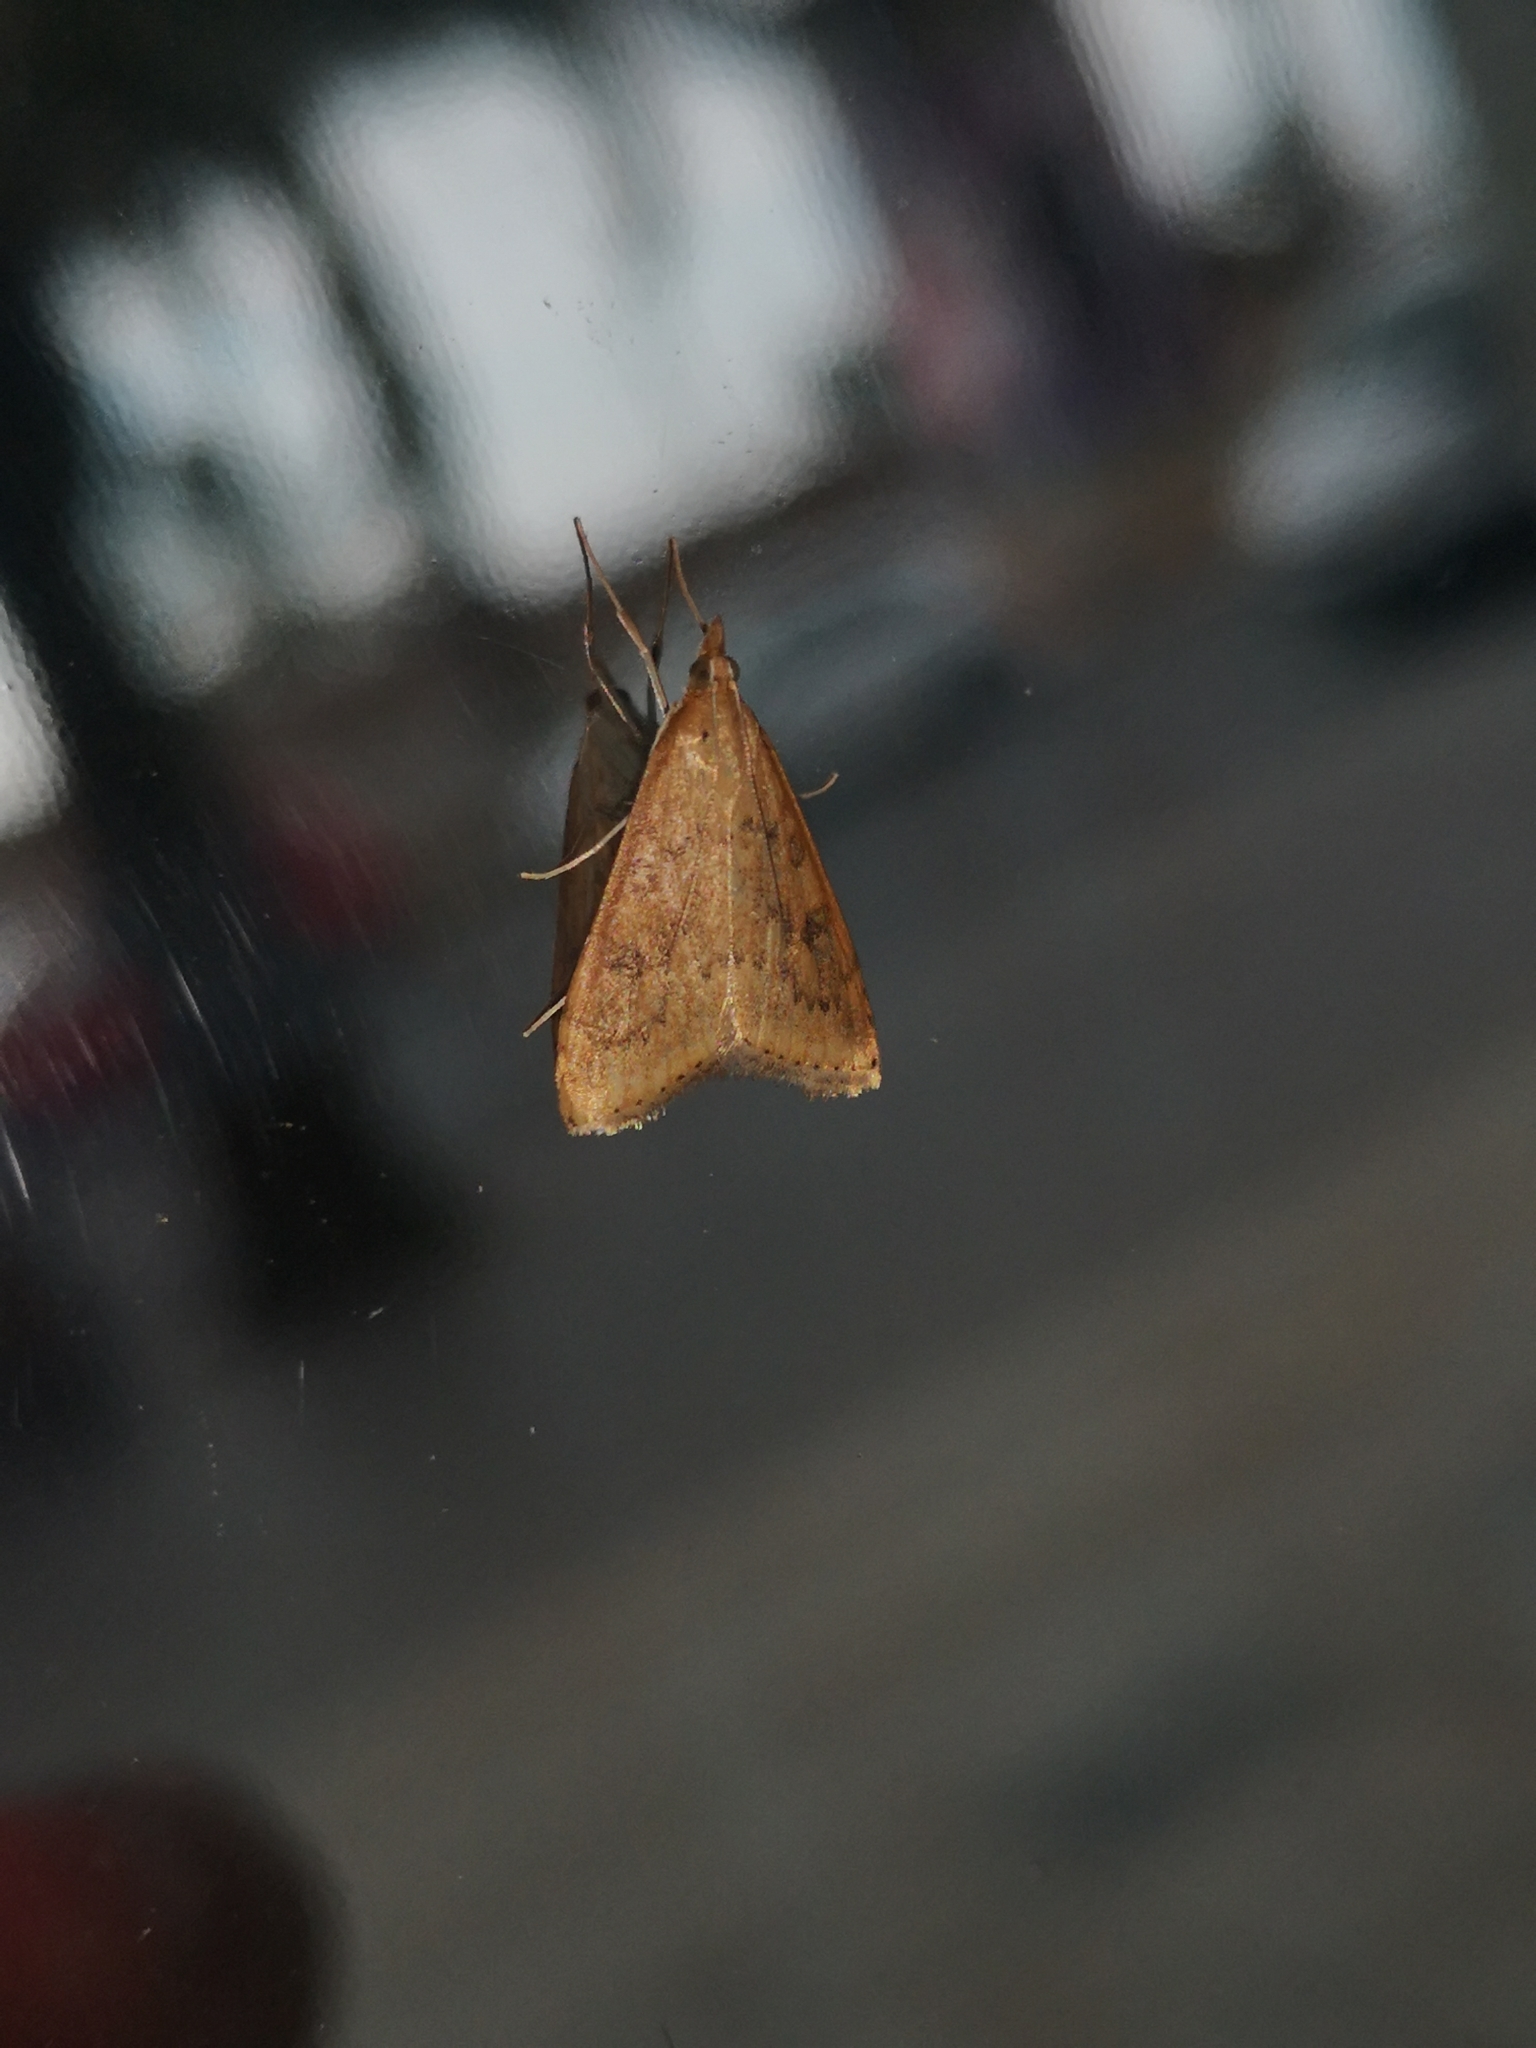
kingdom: Animalia
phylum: Arthropoda
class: Insecta
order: Lepidoptera
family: Crambidae
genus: Udea
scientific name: Udea ferrugalis
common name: Rusty dot
